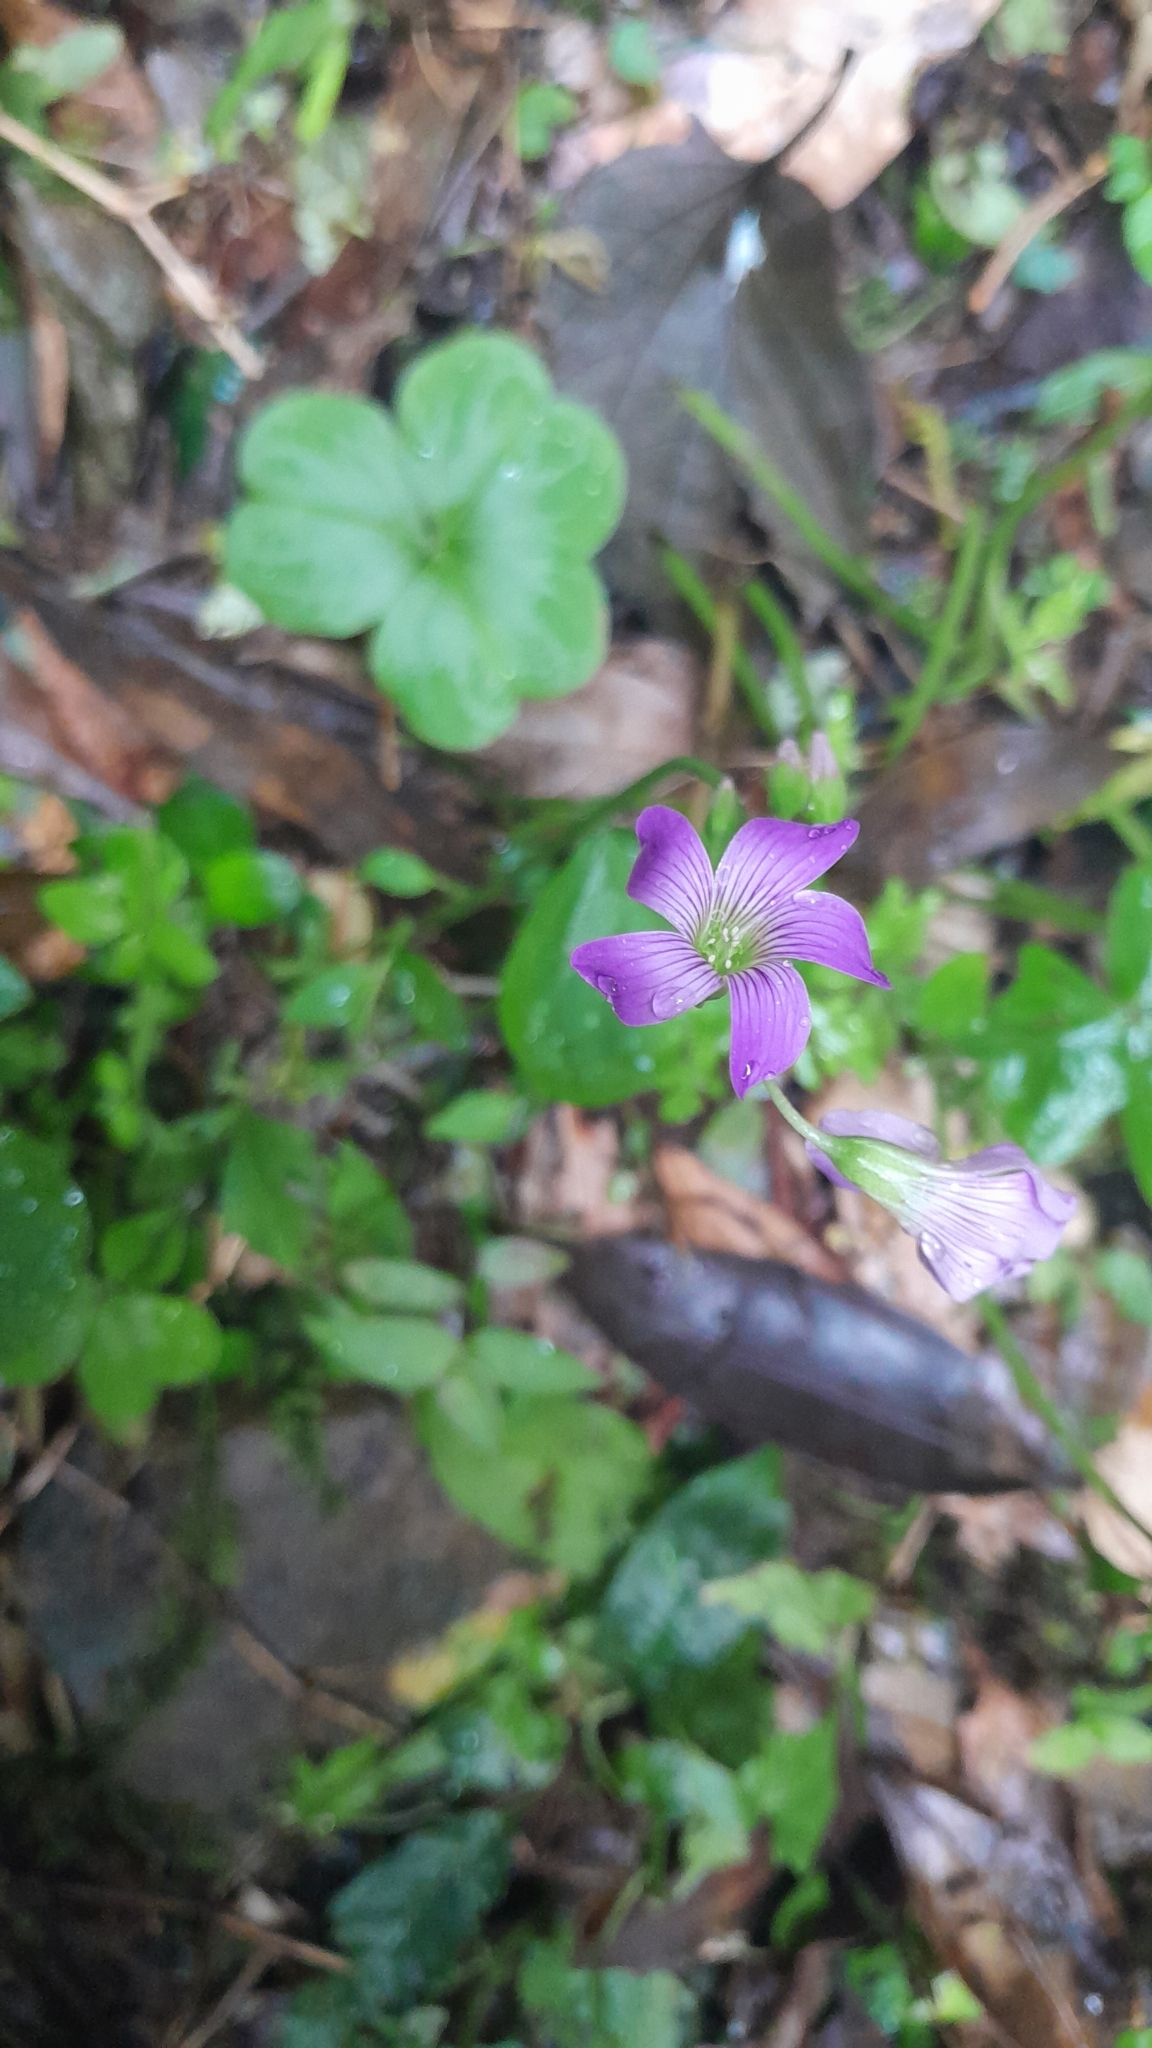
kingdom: Plantae
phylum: Tracheophyta
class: Magnoliopsida
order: Oxalidales
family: Oxalidaceae
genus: Oxalis
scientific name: Oxalis debilis
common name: Large-flowered pink-sorrel
